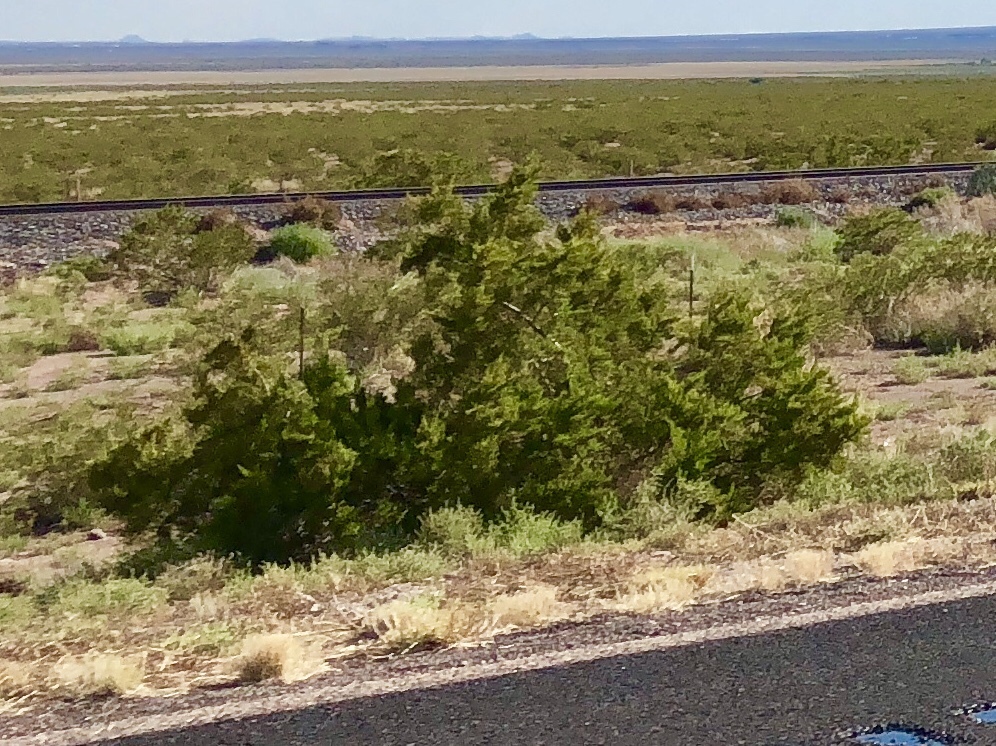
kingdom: Plantae
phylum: Tracheophyta
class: Magnoliopsida
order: Zygophyllales
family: Zygophyllaceae
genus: Larrea
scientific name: Larrea tridentata
